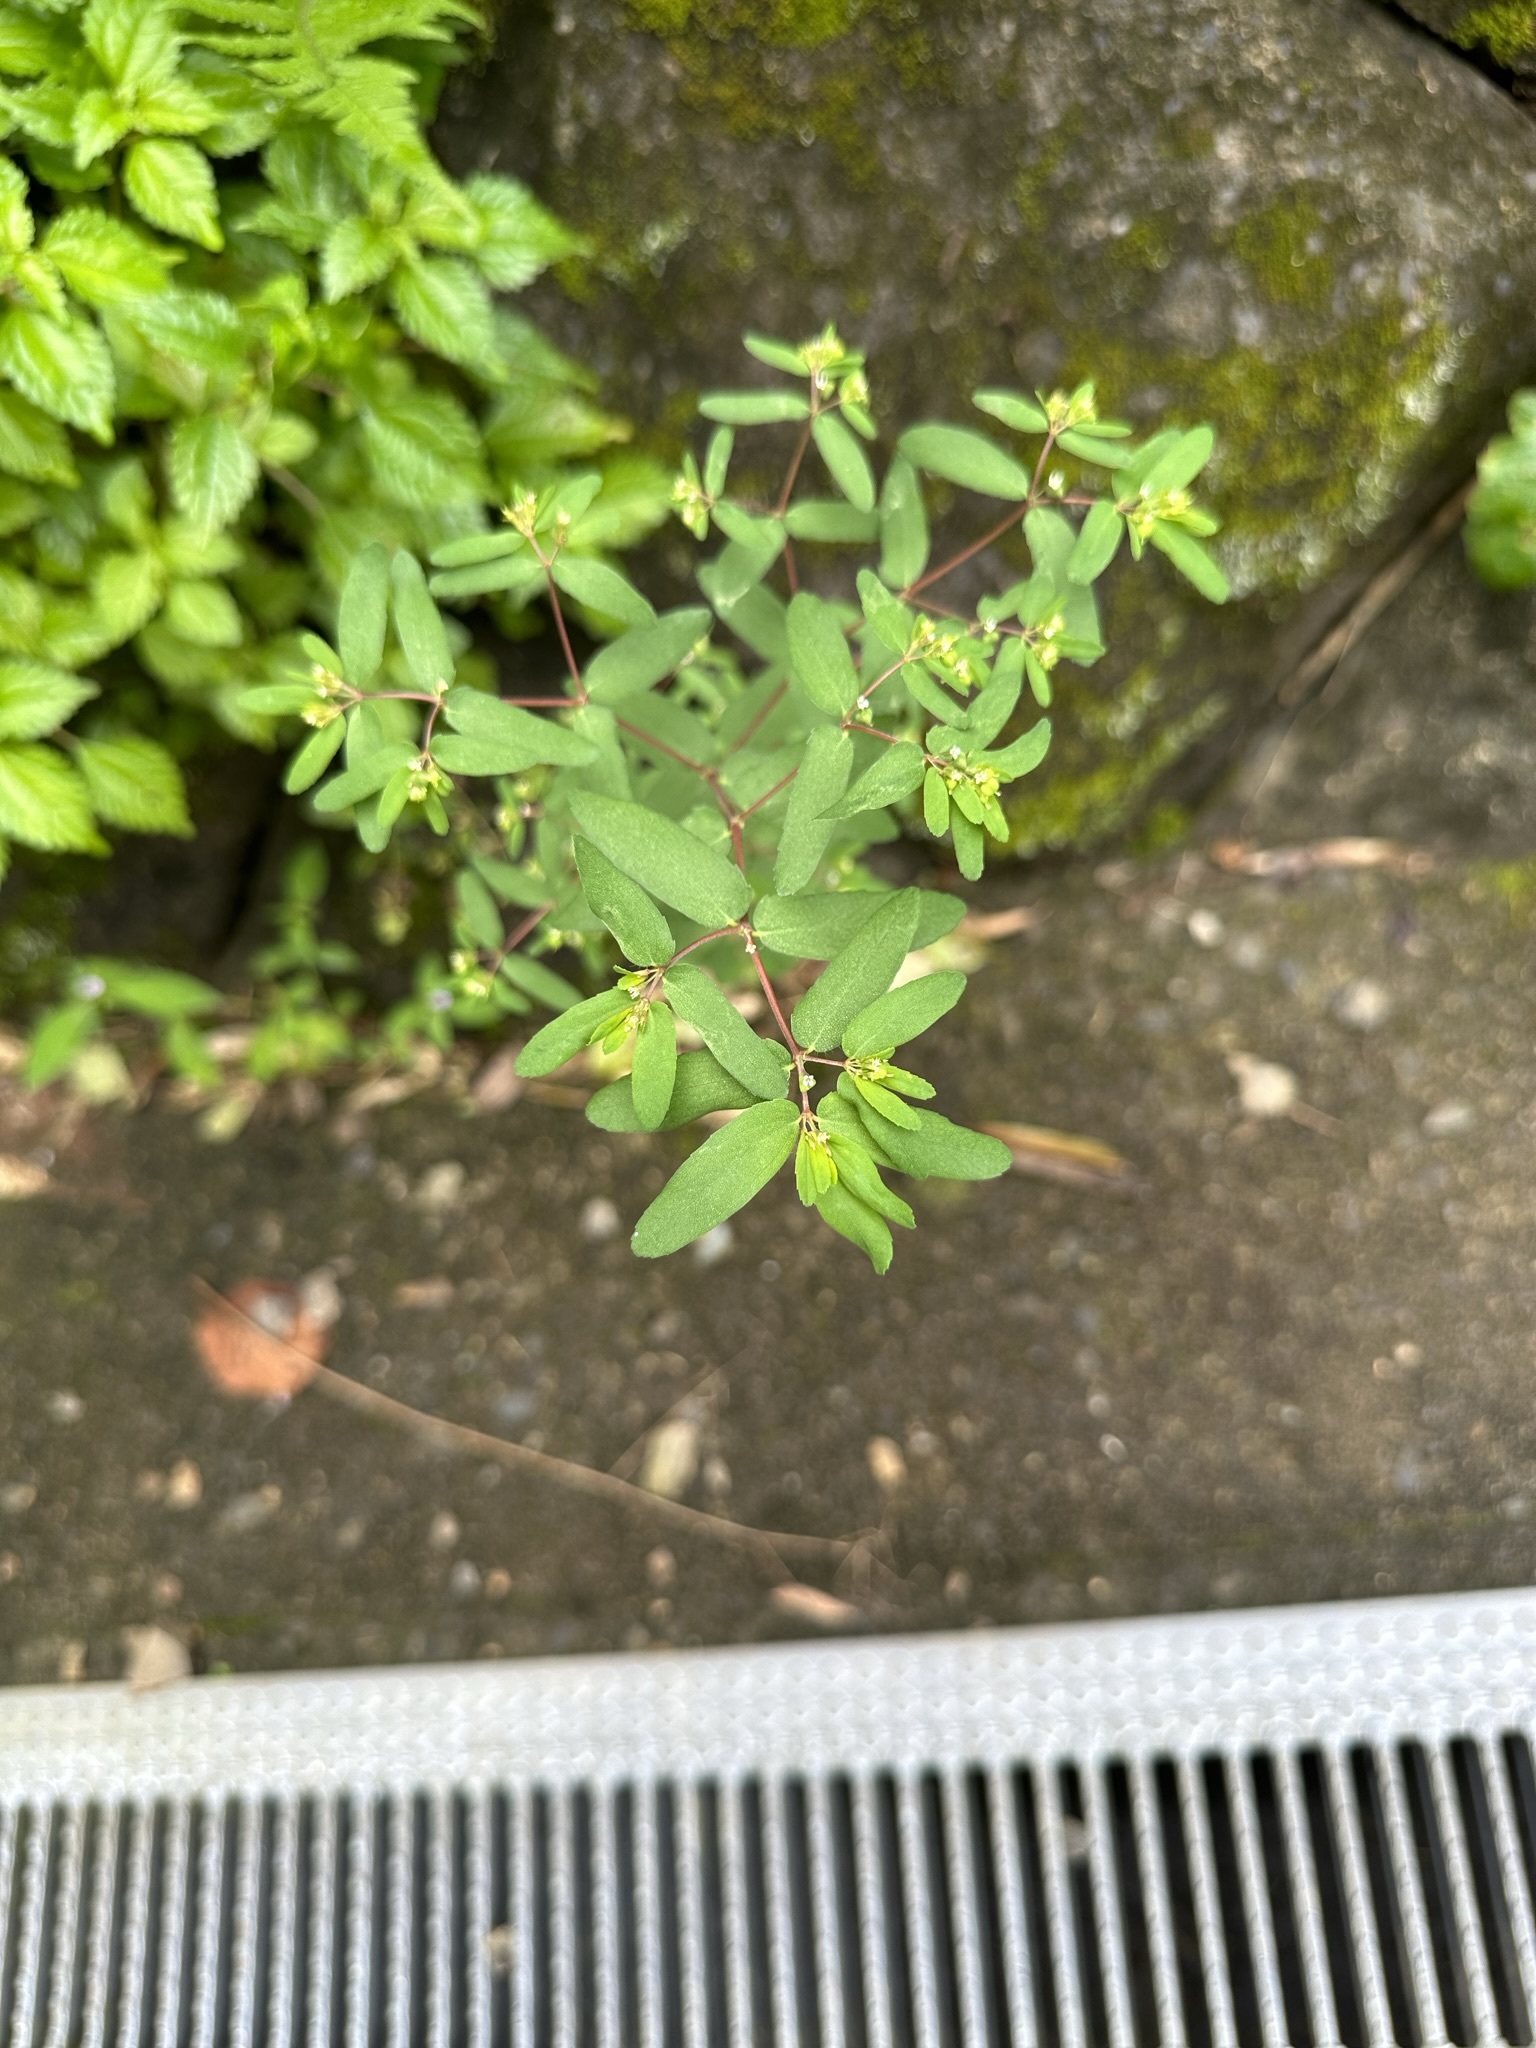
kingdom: Plantae
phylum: Tracheophyta
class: Magnoliopsida
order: Malpighiales
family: Euphorbiaceae
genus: Euphorbia
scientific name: Euphorbia nutans
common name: Eyebane
